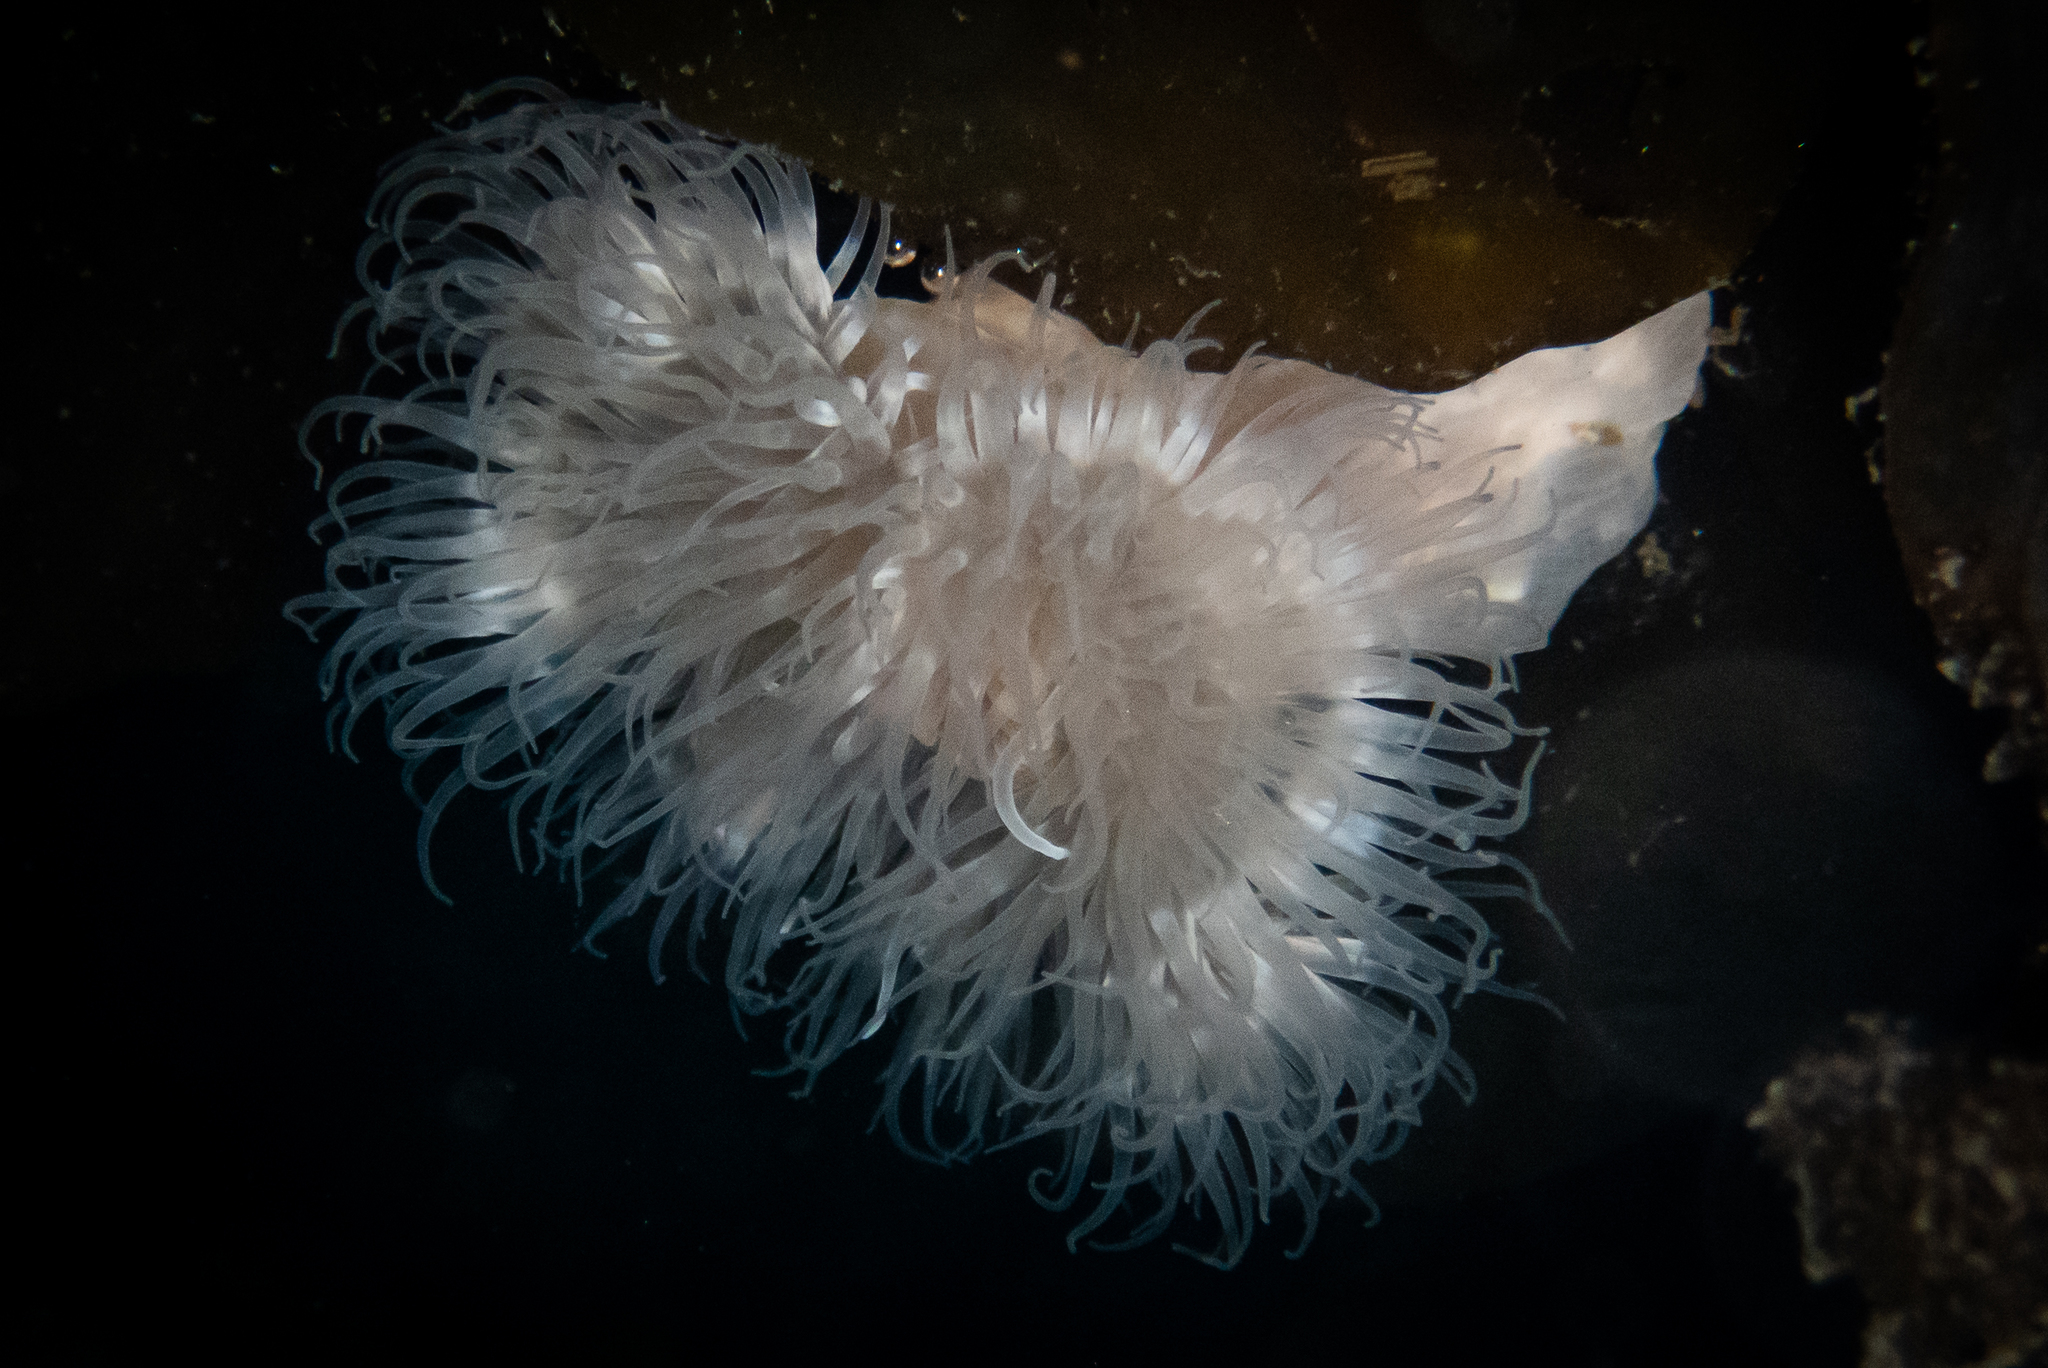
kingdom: Animalia
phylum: Cnidaria
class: Anthozoa
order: Actiniaria
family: Metridiidae
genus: Metridium
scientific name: Metridium senile
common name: Clonal plumose anemone
